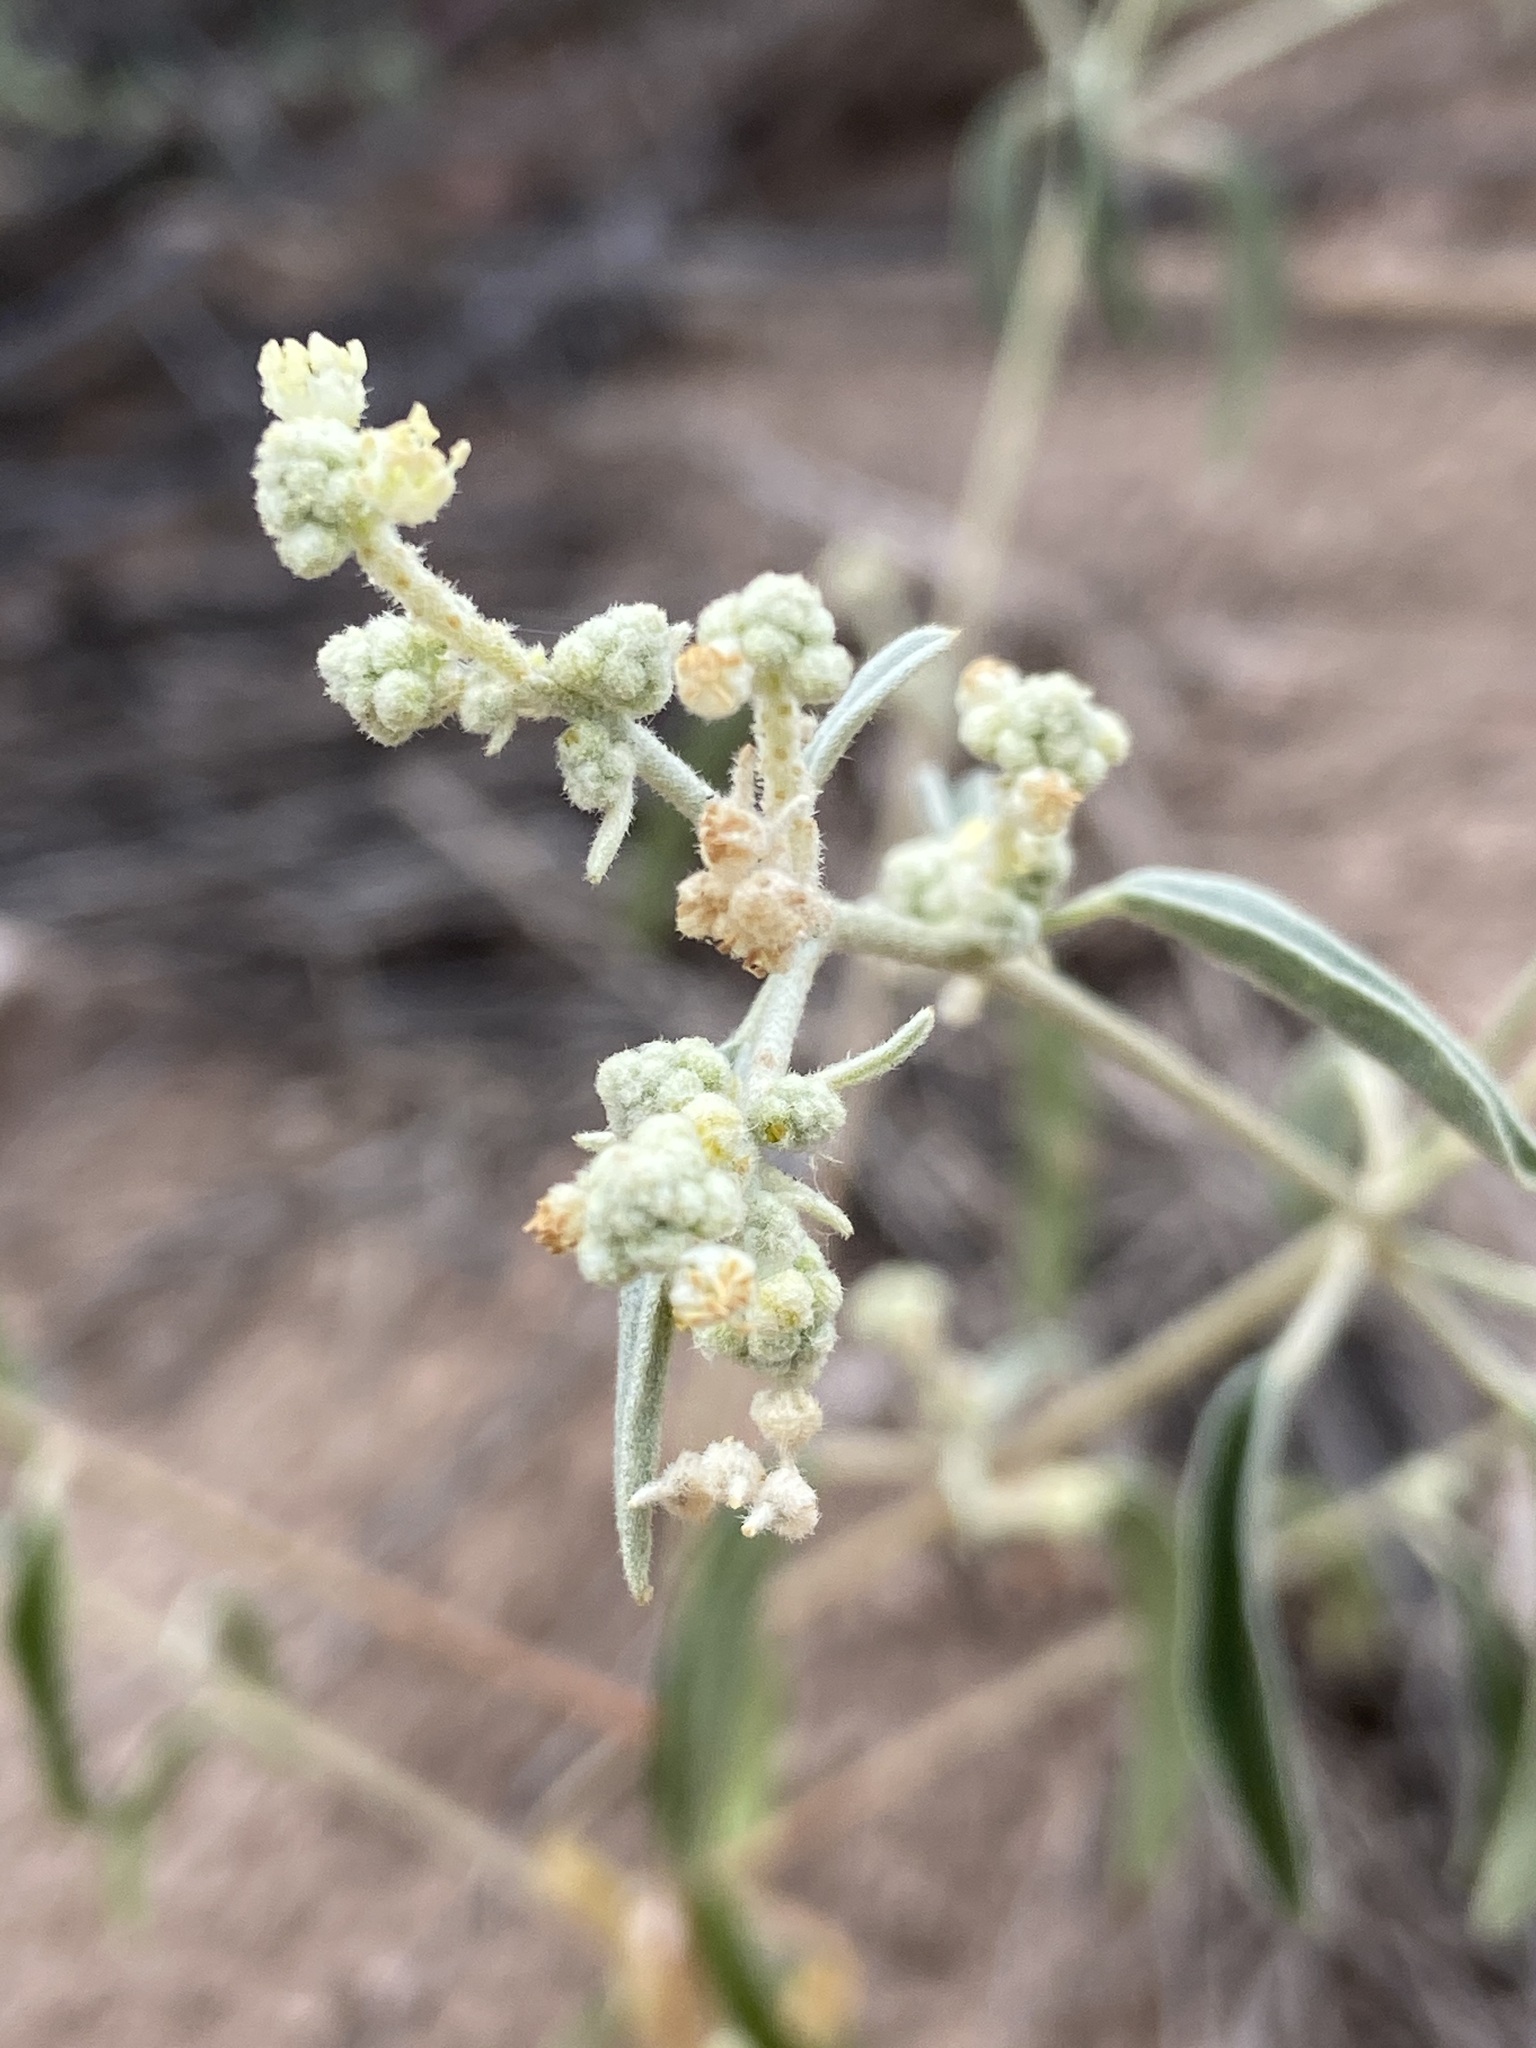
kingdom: Plantae
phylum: Tracheophyta
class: Magnoliopsida
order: Malpighiales
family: Euphorbiaceae
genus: Croton
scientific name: Croton texensis
